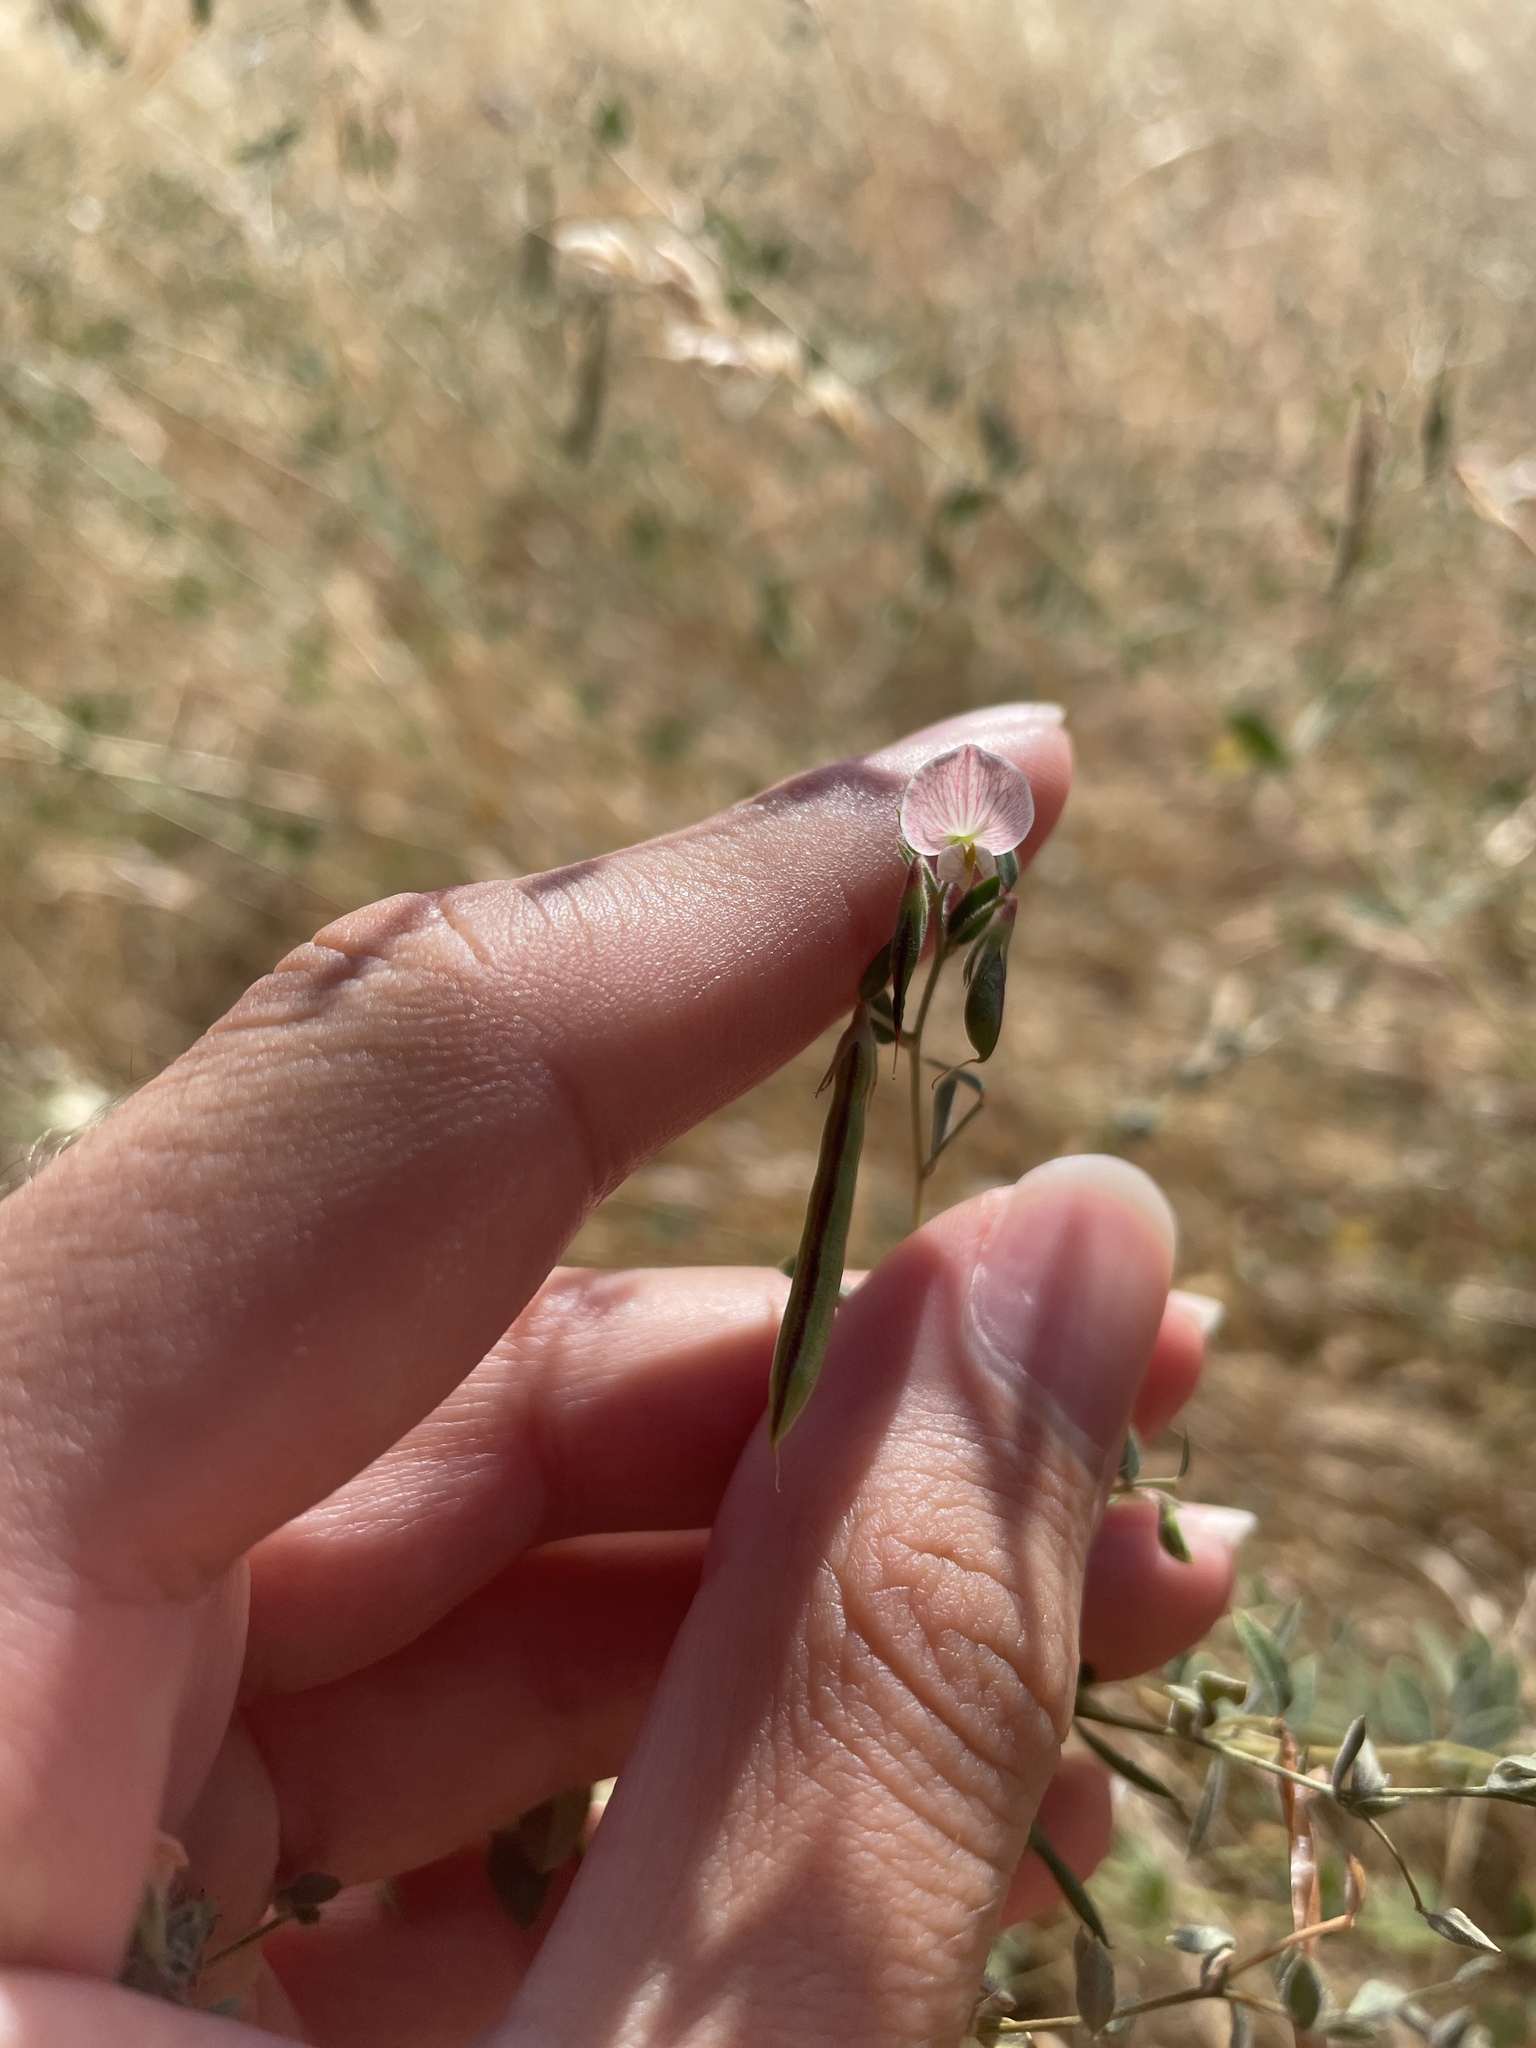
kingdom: Plantae
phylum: Tracheophyta
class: Magnoliopsida
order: Fabales
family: Fabaceae
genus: Acmispon
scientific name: Acmispon americanus
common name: American bird's-foot trefoil
